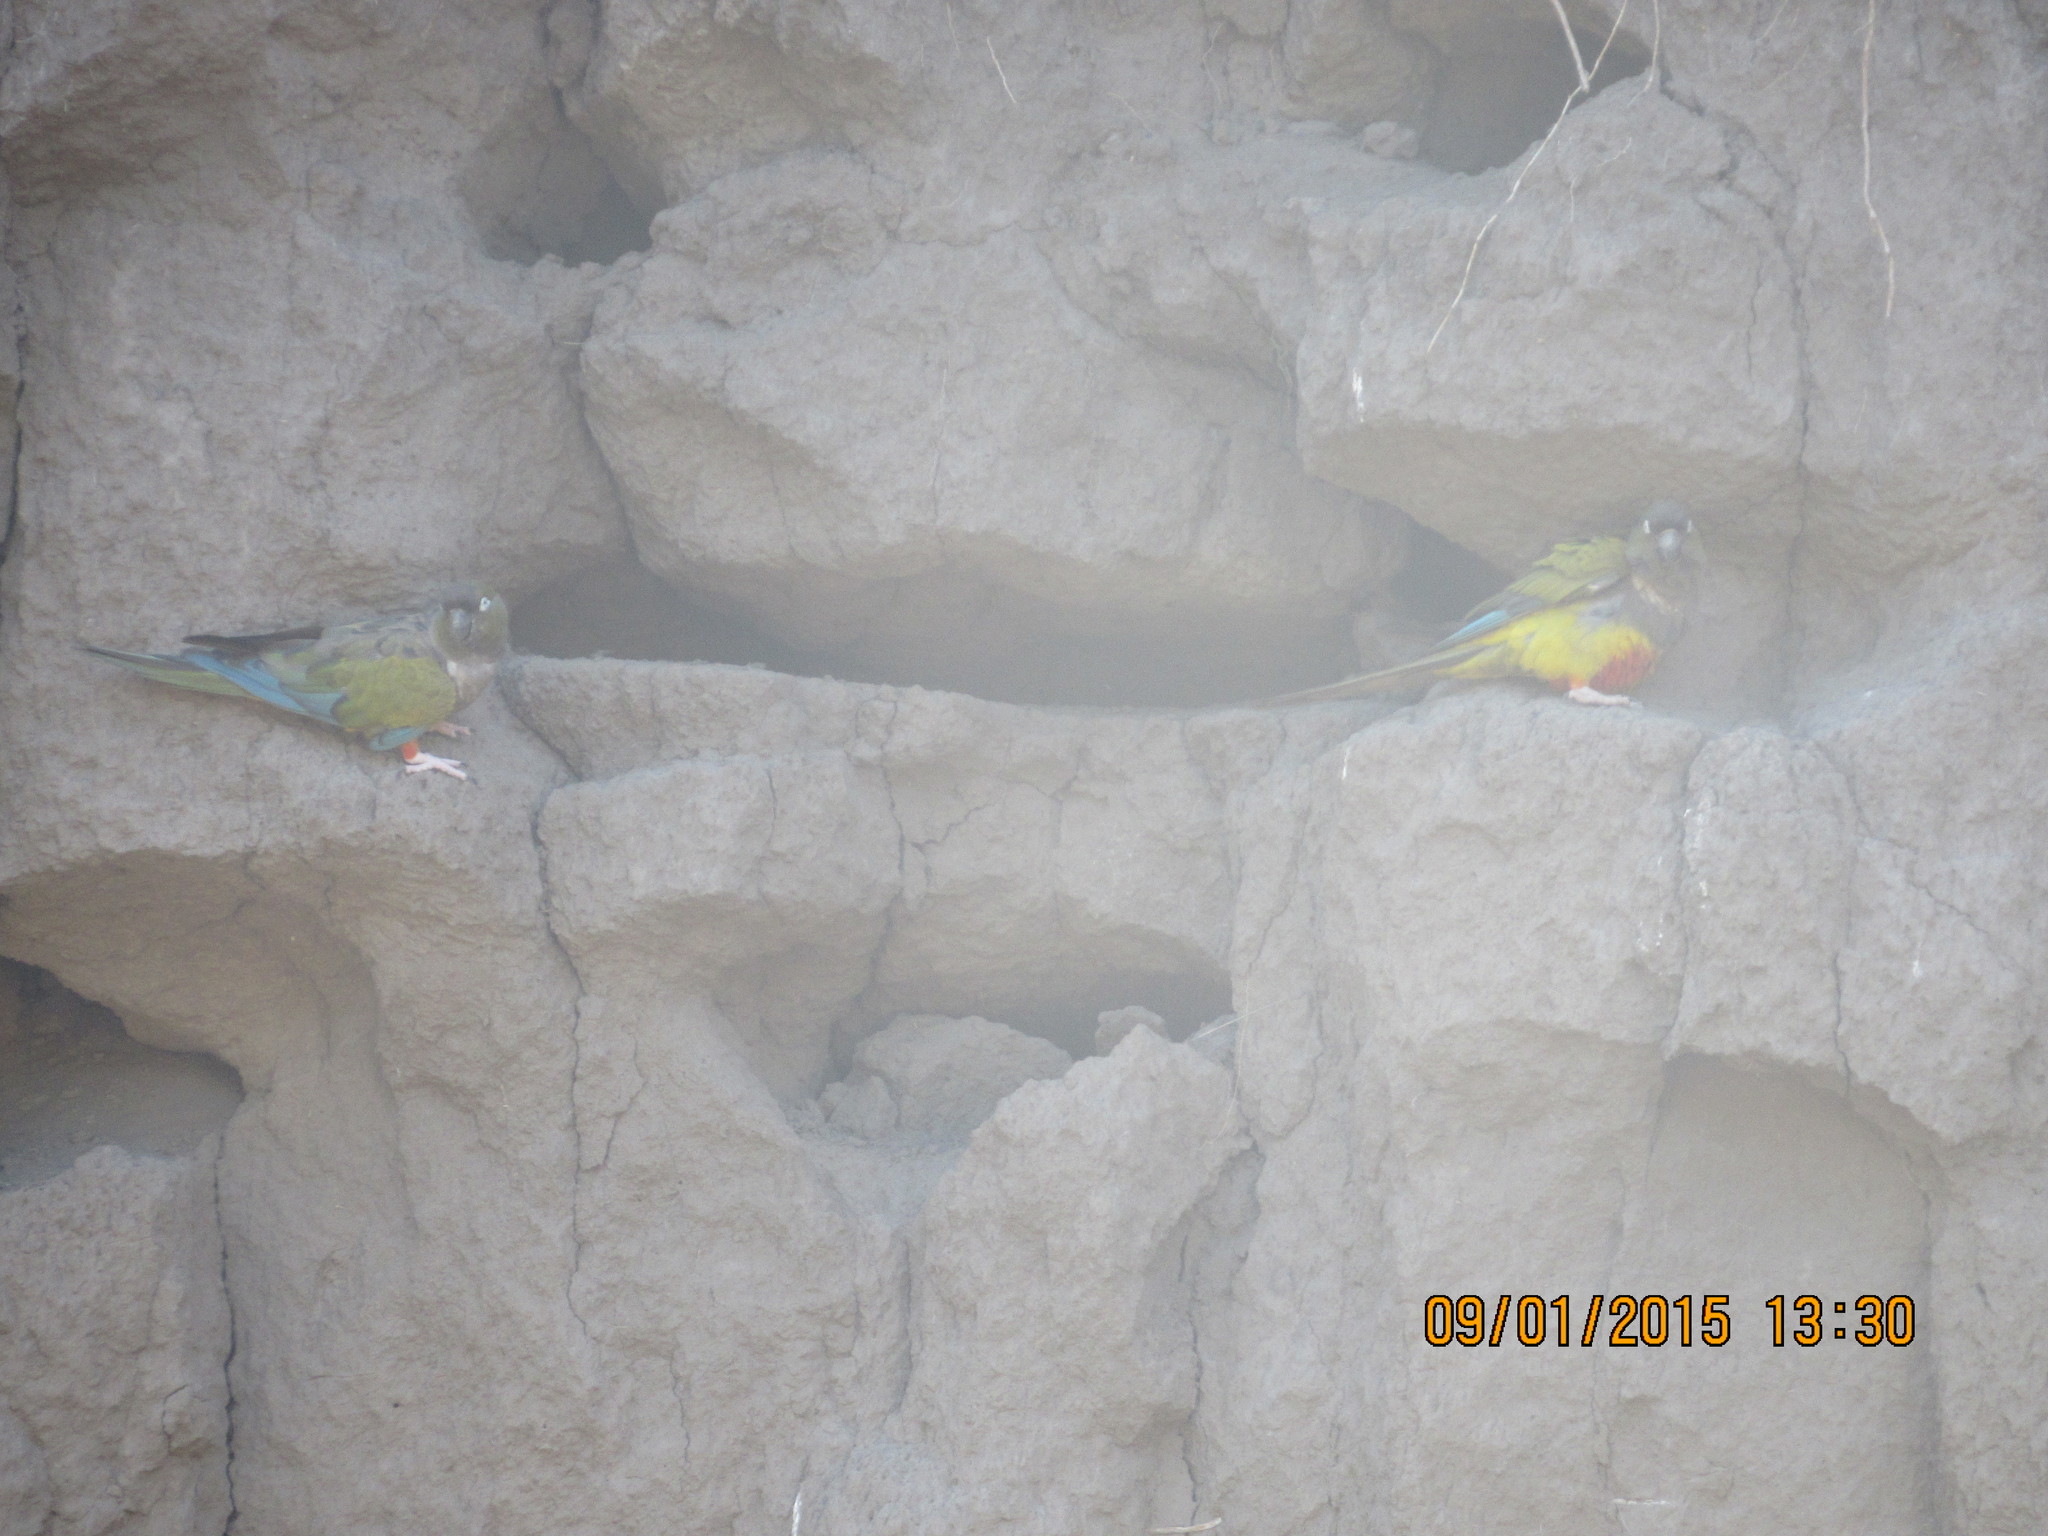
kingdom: Animalia
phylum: Chordata
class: Aves
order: Psittaciformes
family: Psittacidae
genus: Cyanoliseus
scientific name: Cyanoliseus patagonus
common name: Burrowing parrot
